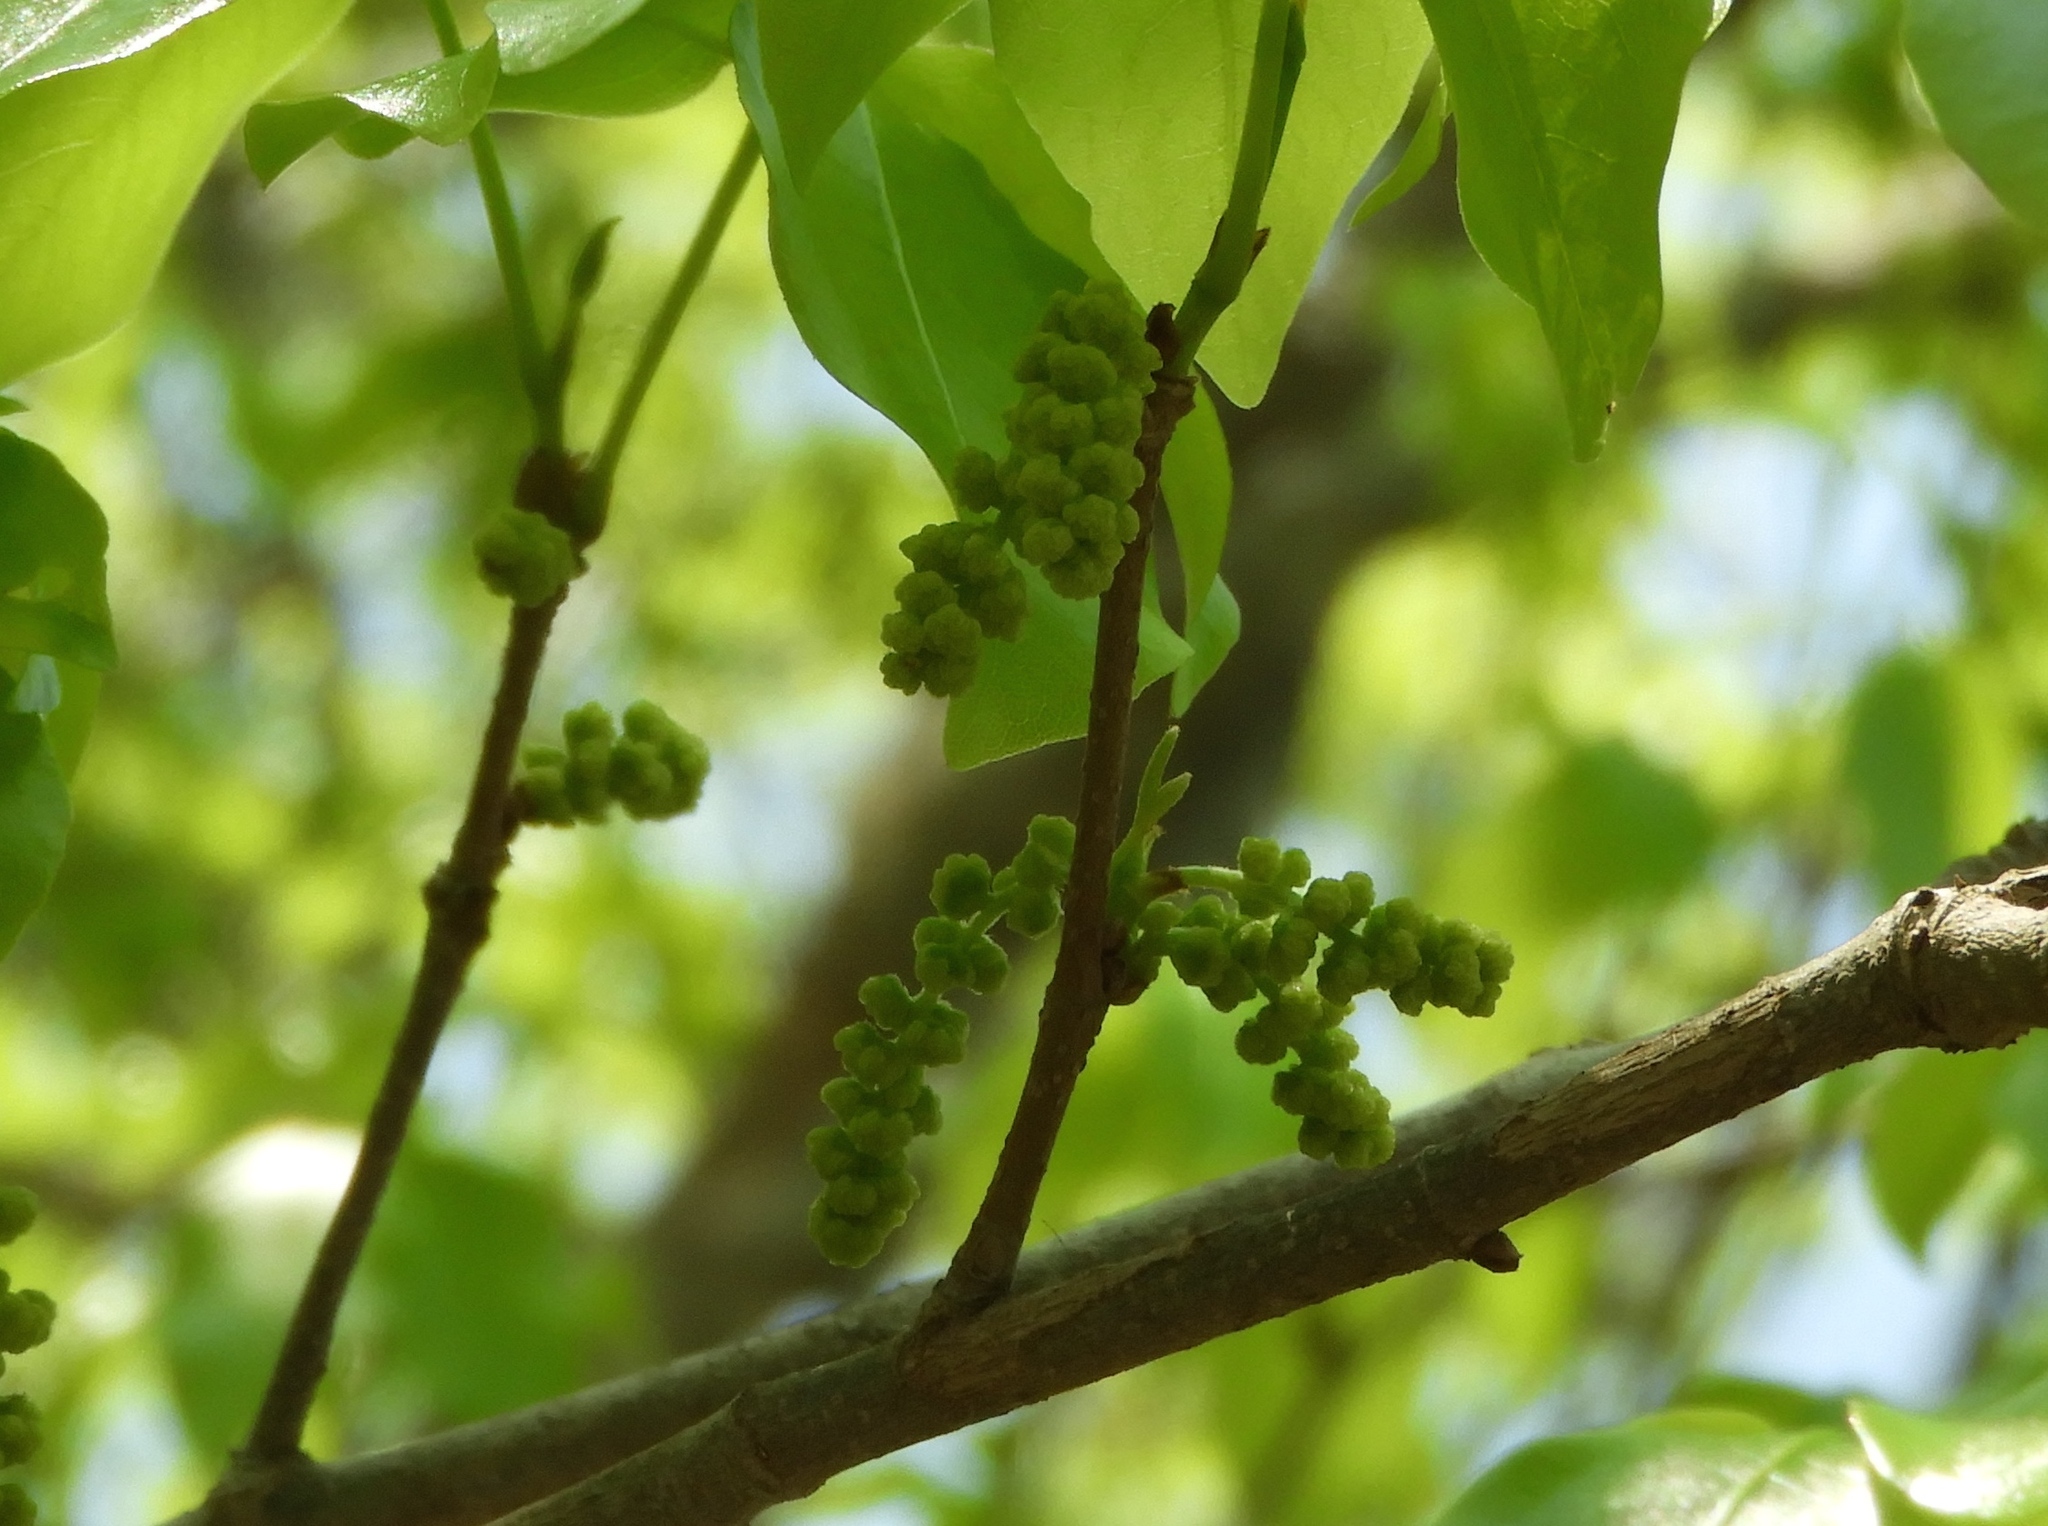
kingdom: Plantae
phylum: Tracheophyta
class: Magnoliopsida
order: Malpighiales
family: Picrodendraceae
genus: Piranhea
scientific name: Piranhea mexicana
